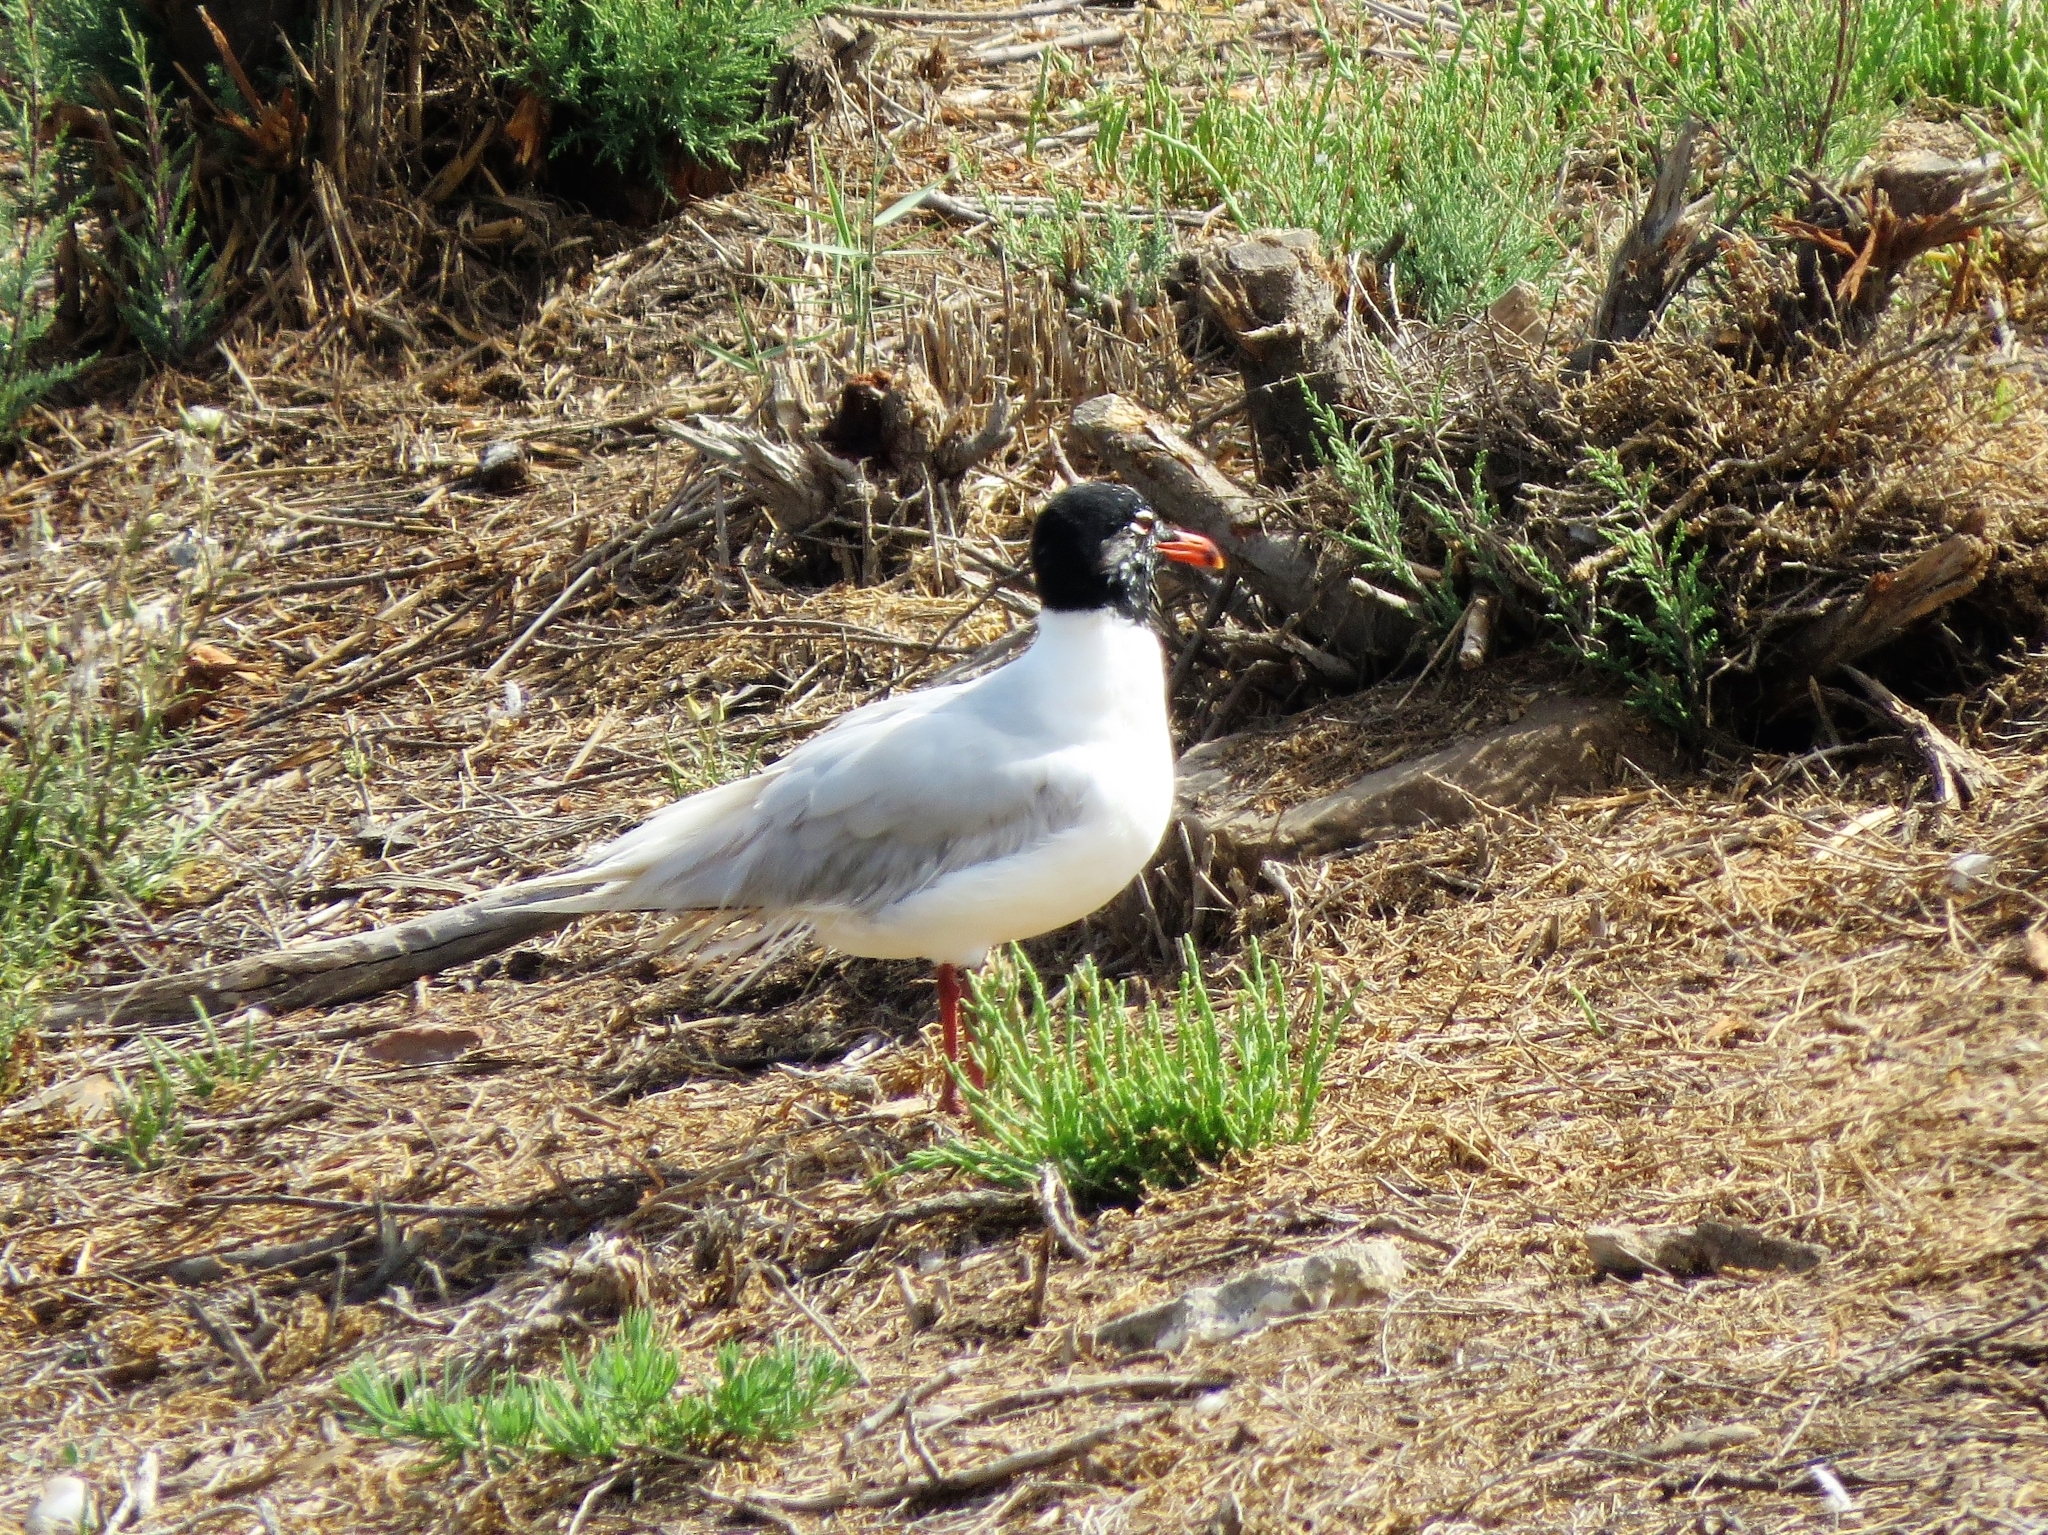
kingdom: Animalia
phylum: Chordata
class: Aves
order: Charadriiformes
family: Laridae
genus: Ichthyaetus
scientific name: Ichthyaetus melanocephalus
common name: Mediterranean gull
